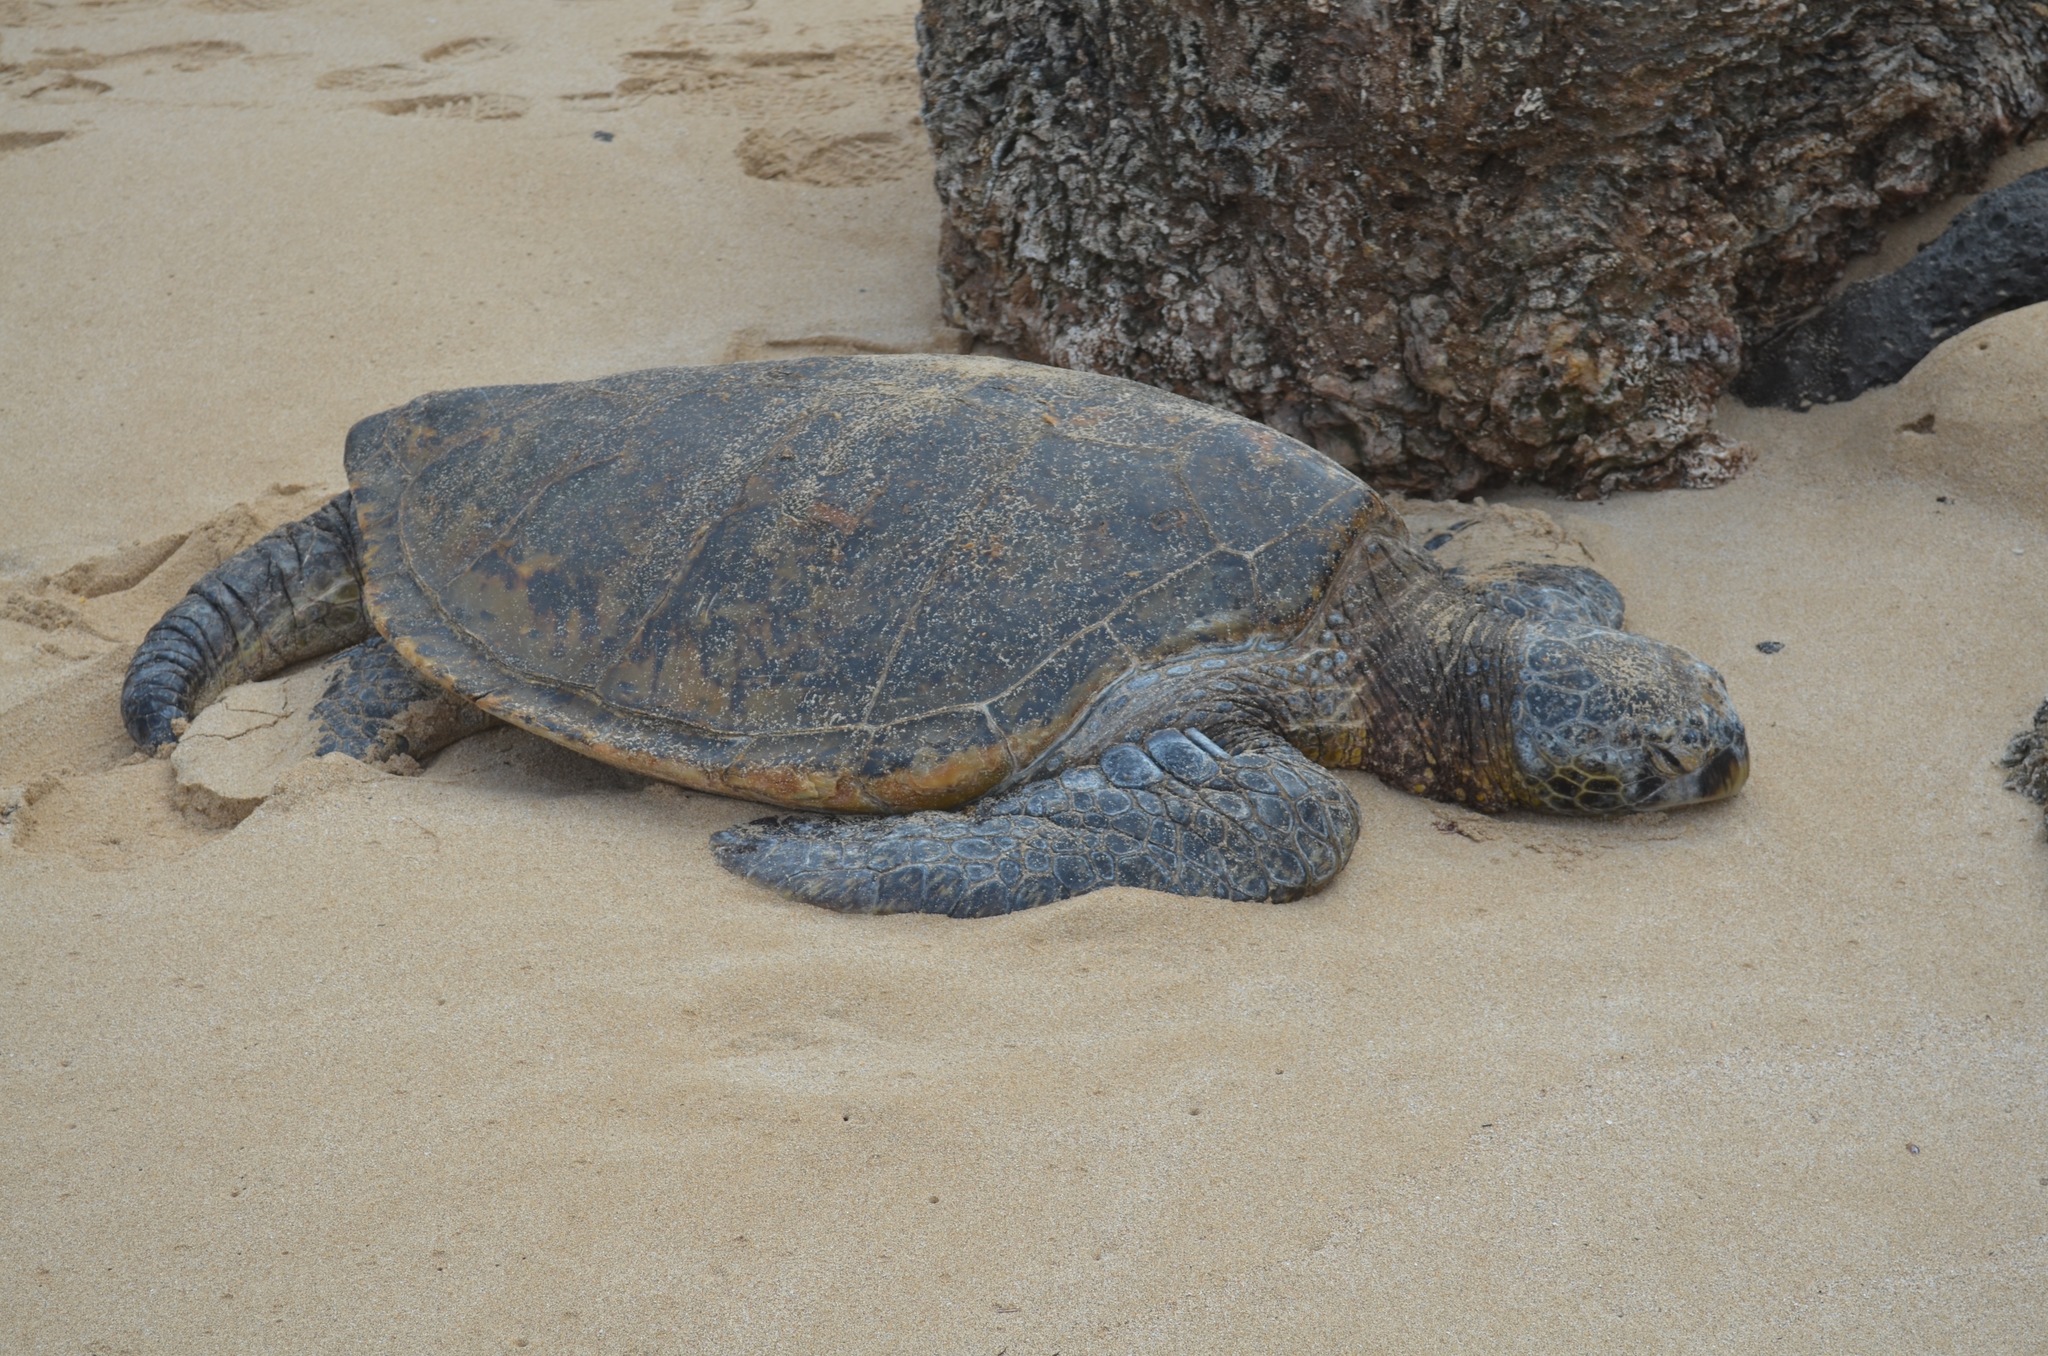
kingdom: Animalia
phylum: Chordata
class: Testudines
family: Cheloniidae
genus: Chelonia
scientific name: Chelonia mydas
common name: Green turtle
